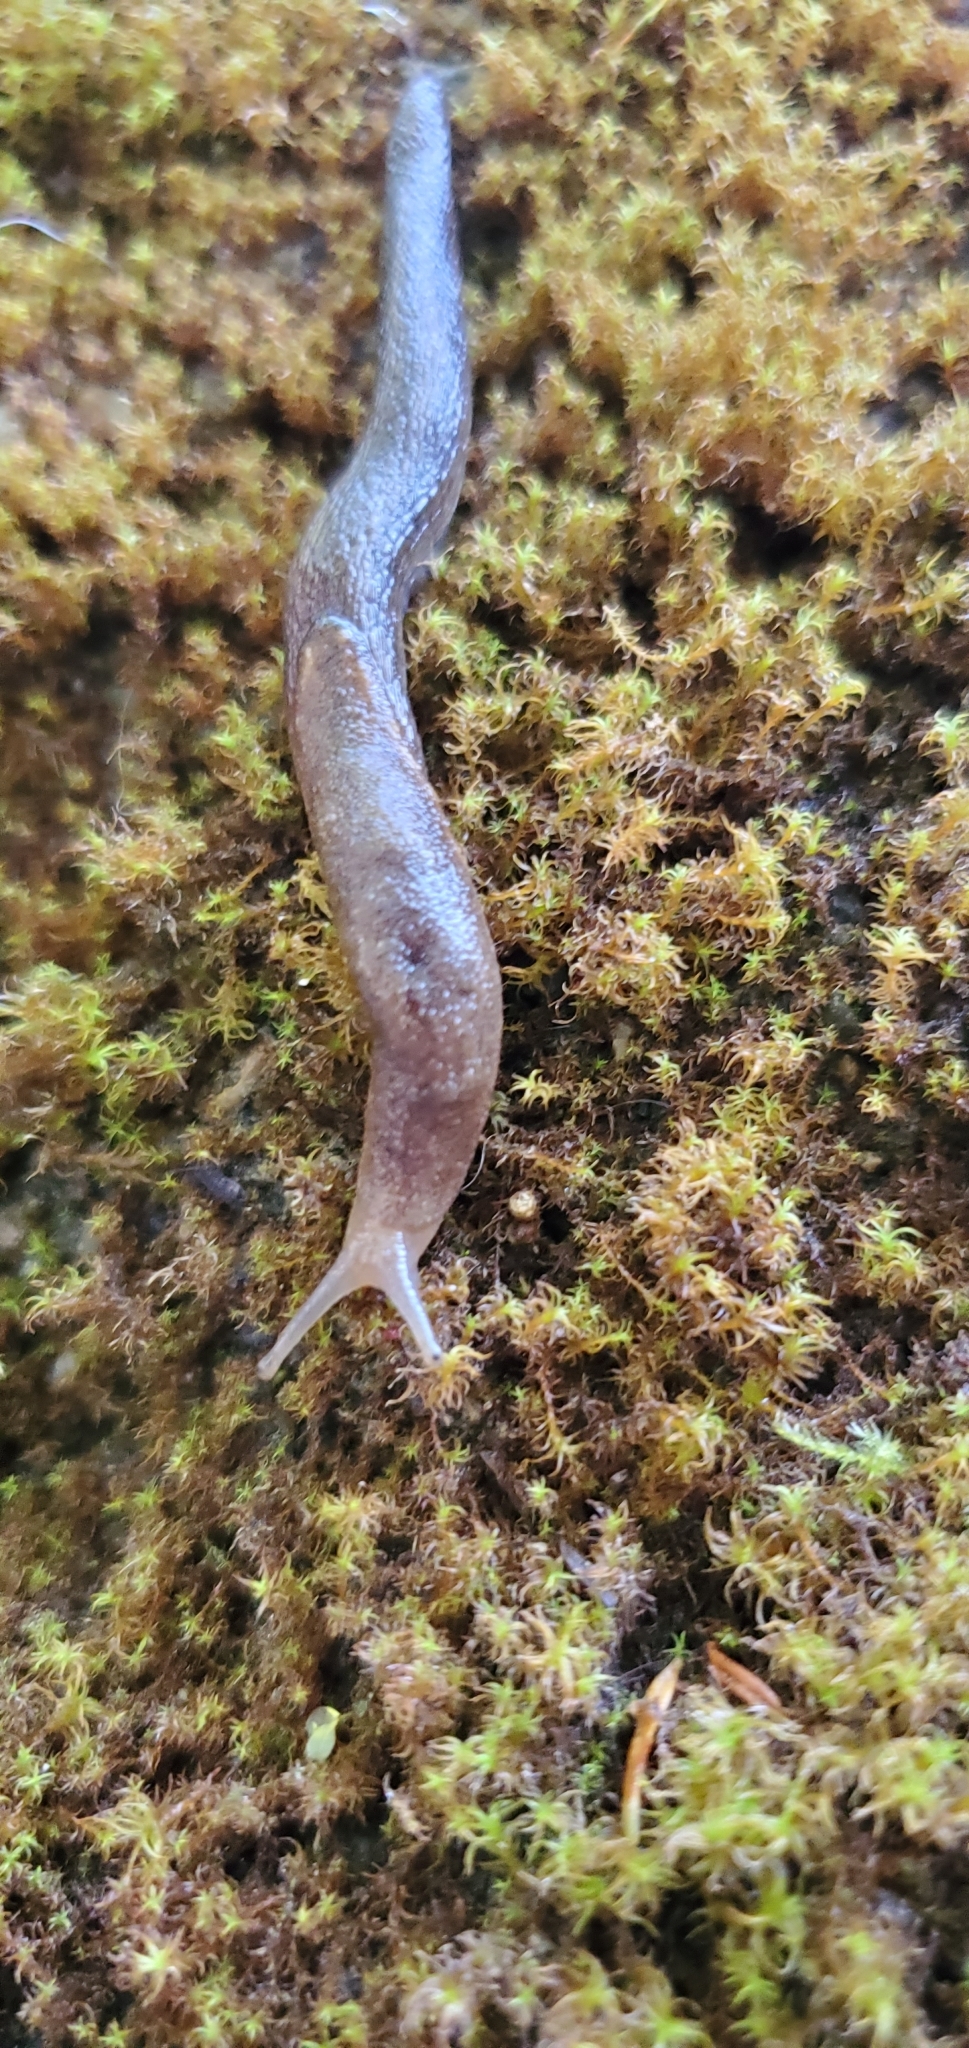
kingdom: Animalia
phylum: Mollusca
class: Gastropoda
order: Stylommatophora
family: Ariolimacidae
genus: Prophysaon
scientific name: Prophysaon foliolatum
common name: Yellow-bordered taildropper
